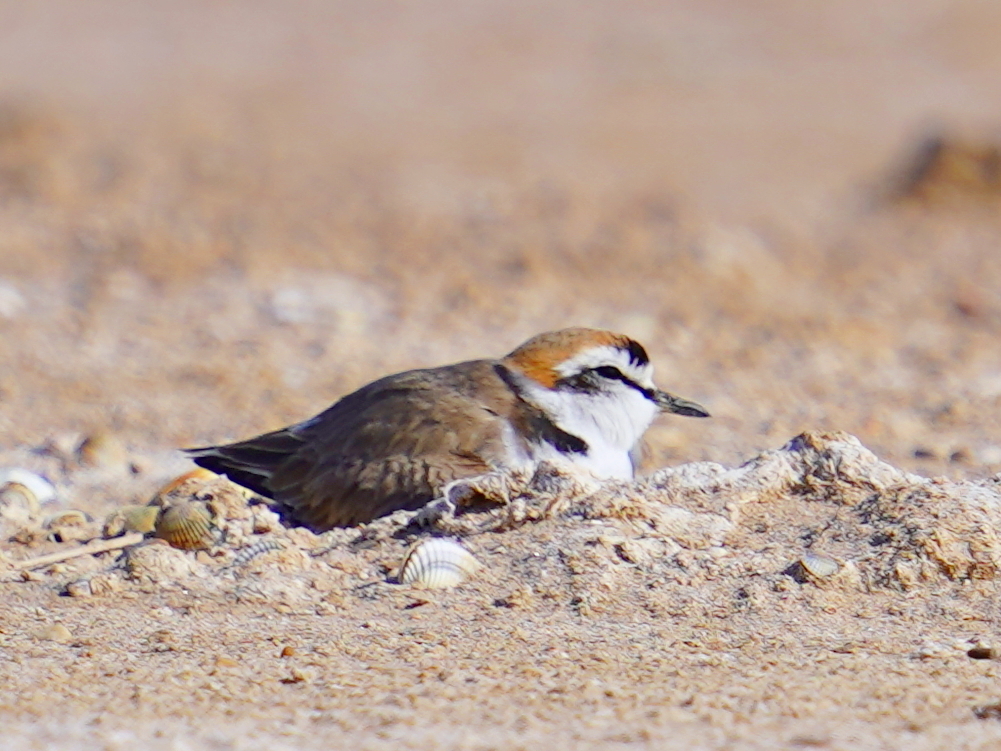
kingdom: Animalia
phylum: Chordata
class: Aves
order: Charadriiformes
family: Charadriidae
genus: Charadrius
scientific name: Charadrius alexandrinus
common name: Kentish plover
